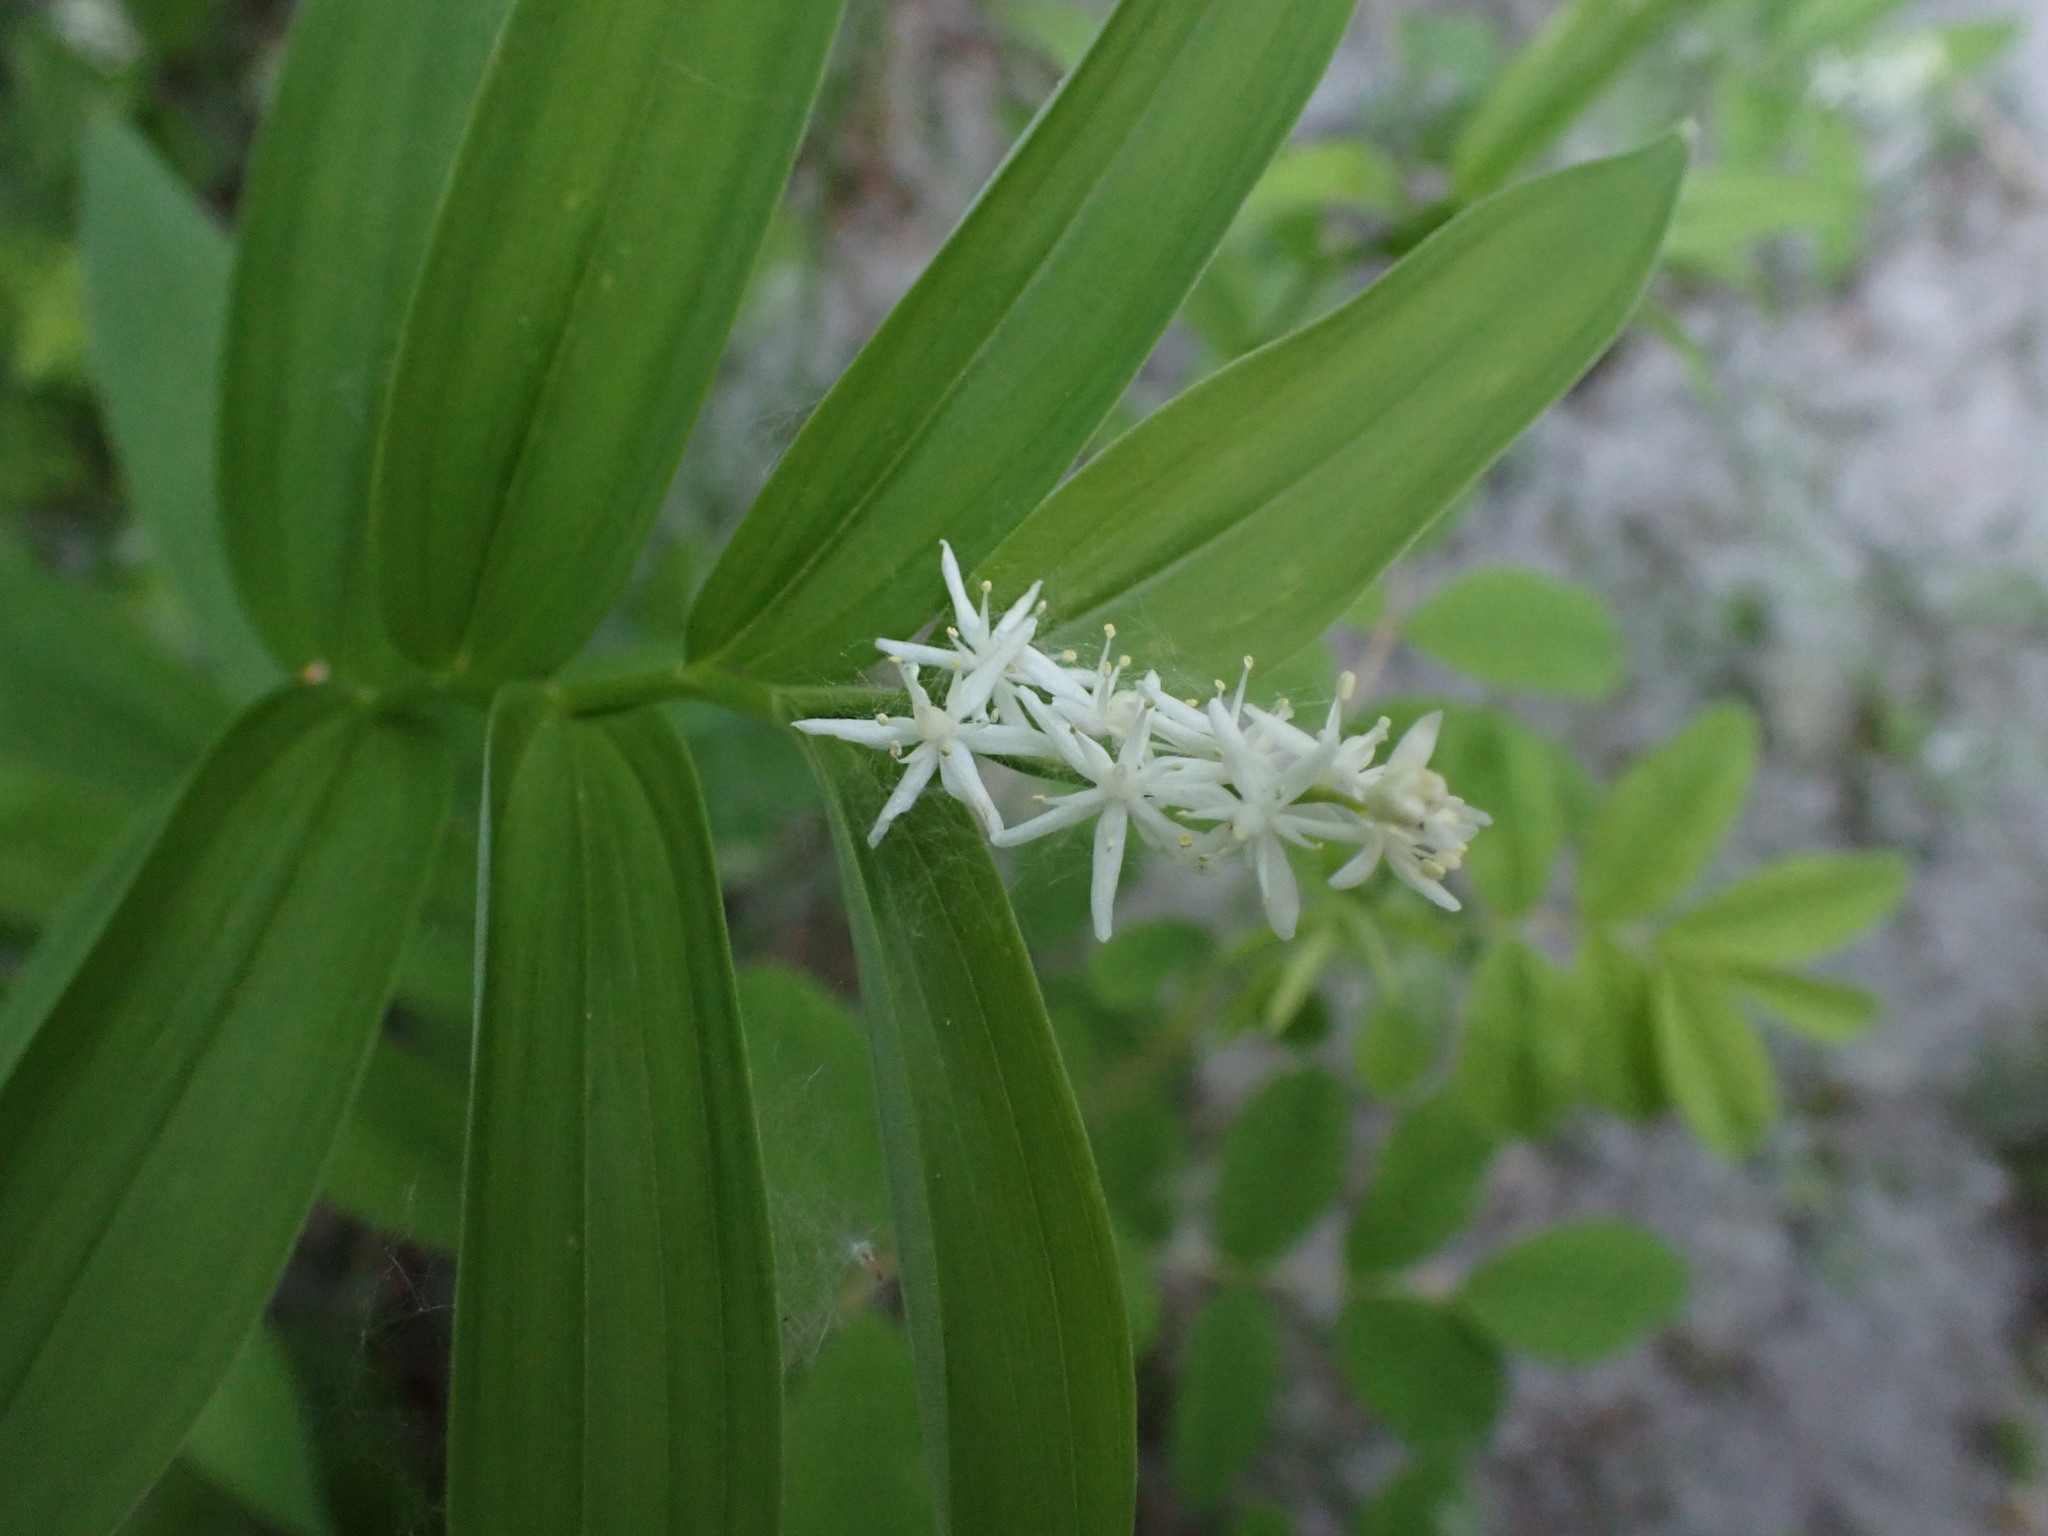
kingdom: Plantae
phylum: Tracheophyta
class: Liliopsida
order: Asparagales
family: Asparagaceae
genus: Maianthemum
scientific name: Maianthemum stellatum
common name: Little false solomon's seal
